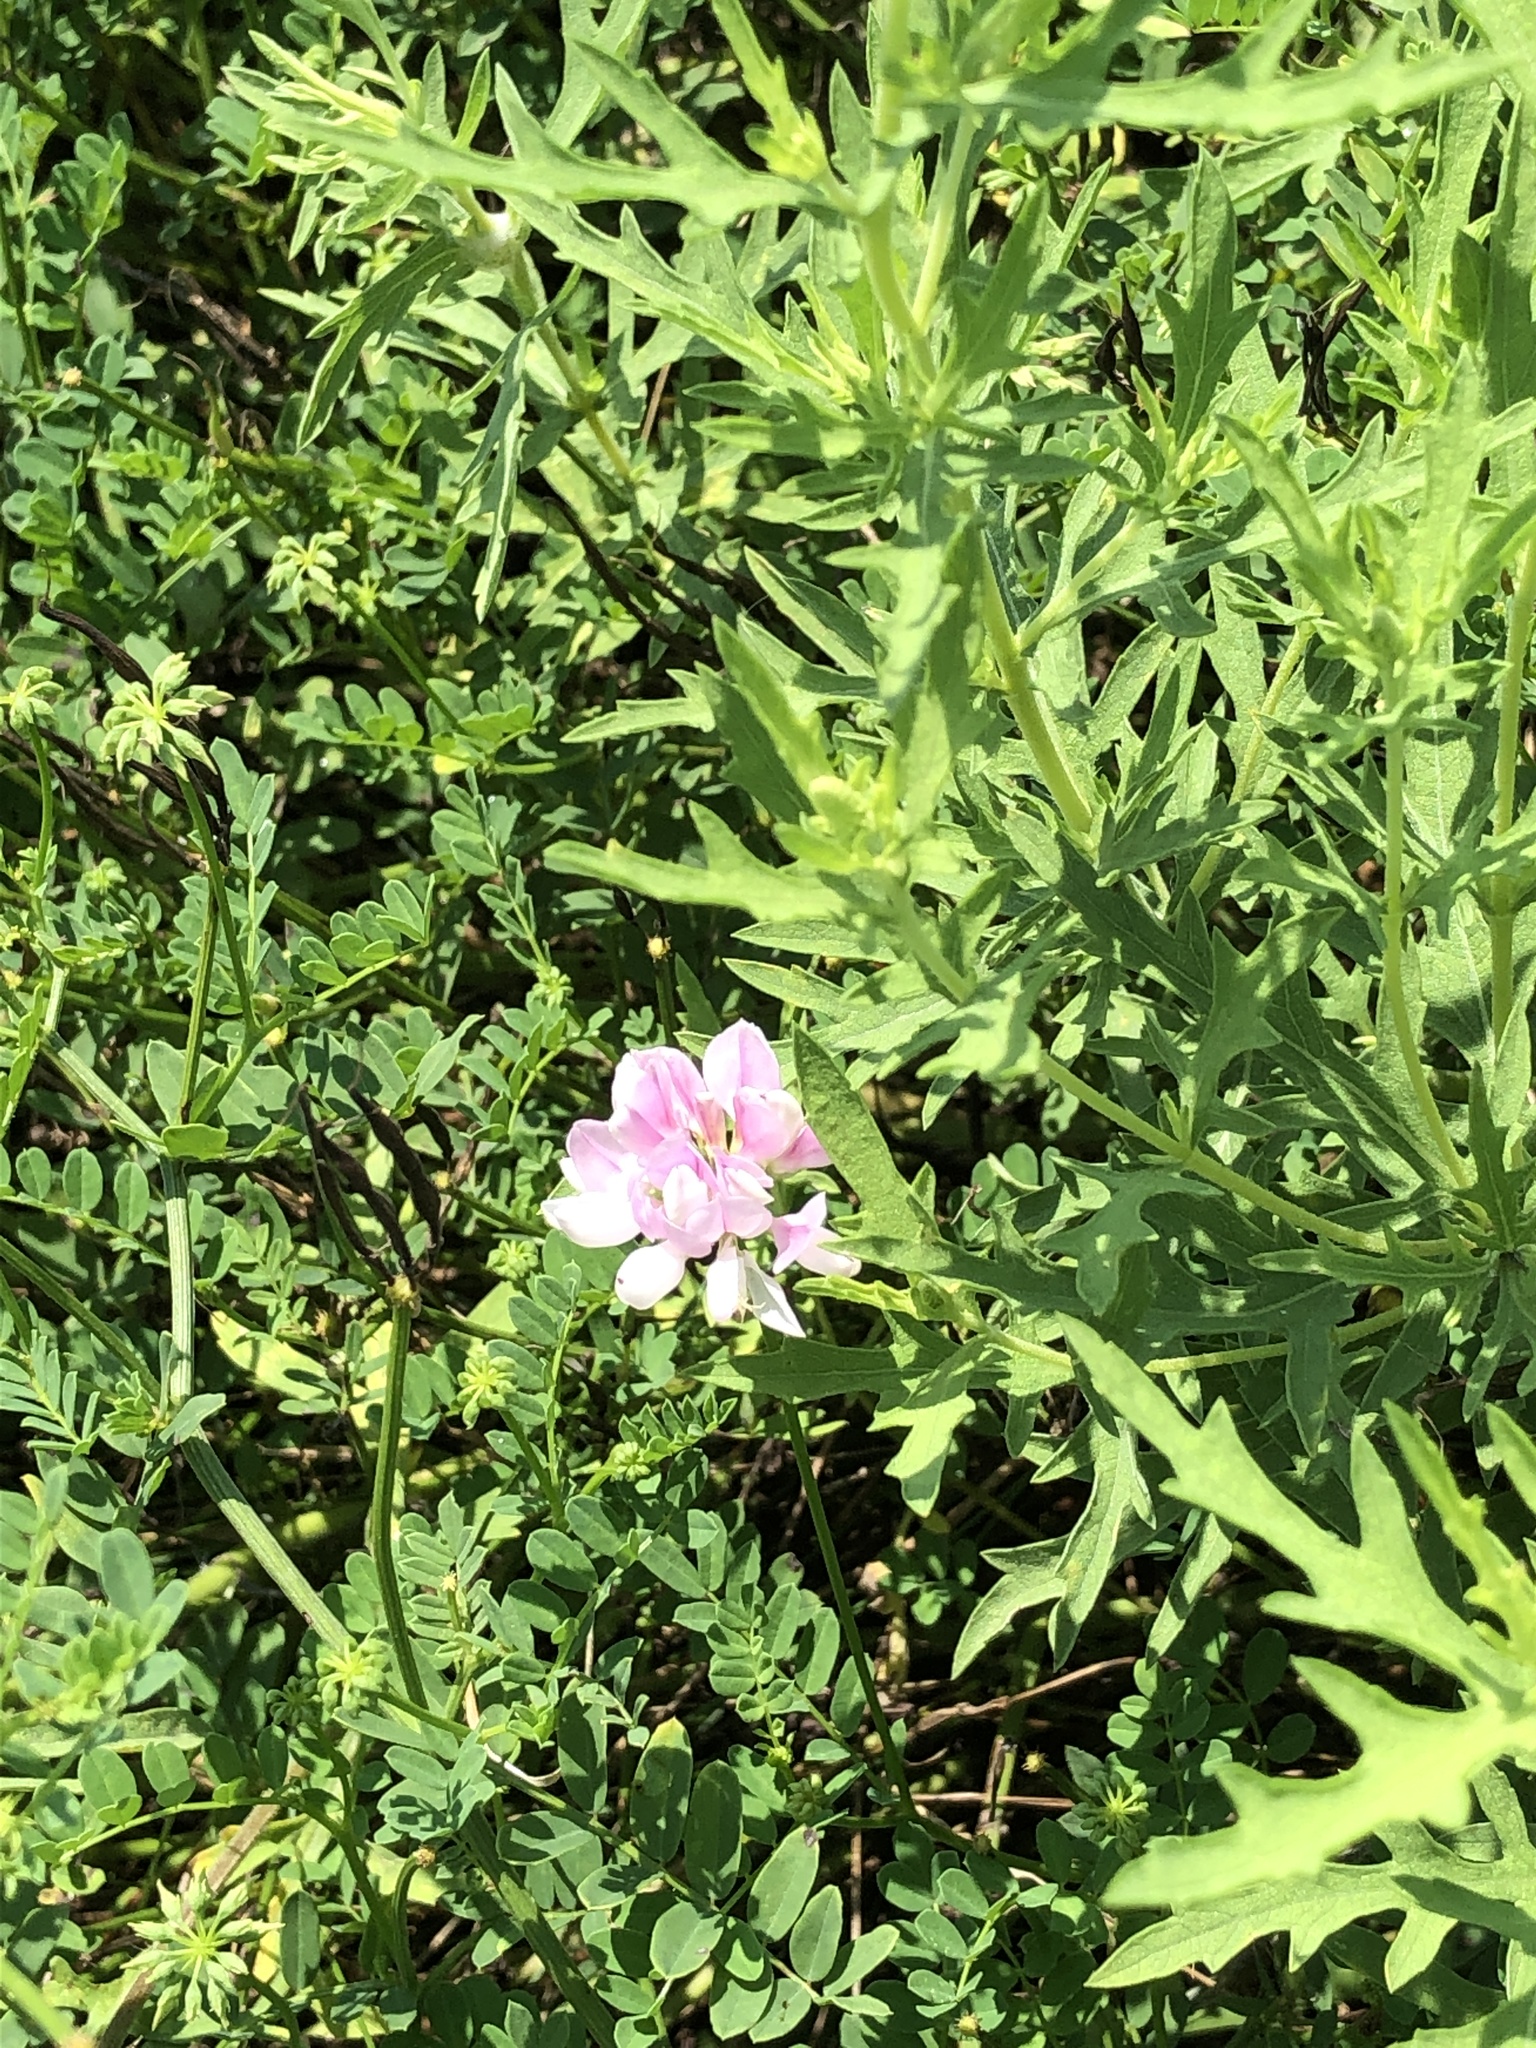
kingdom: Plantae
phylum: Tracheophyta
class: Magnoliopsida
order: Fabales
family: Fabaceae
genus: Coronilla
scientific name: Coronilla varia
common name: Crownvetch
